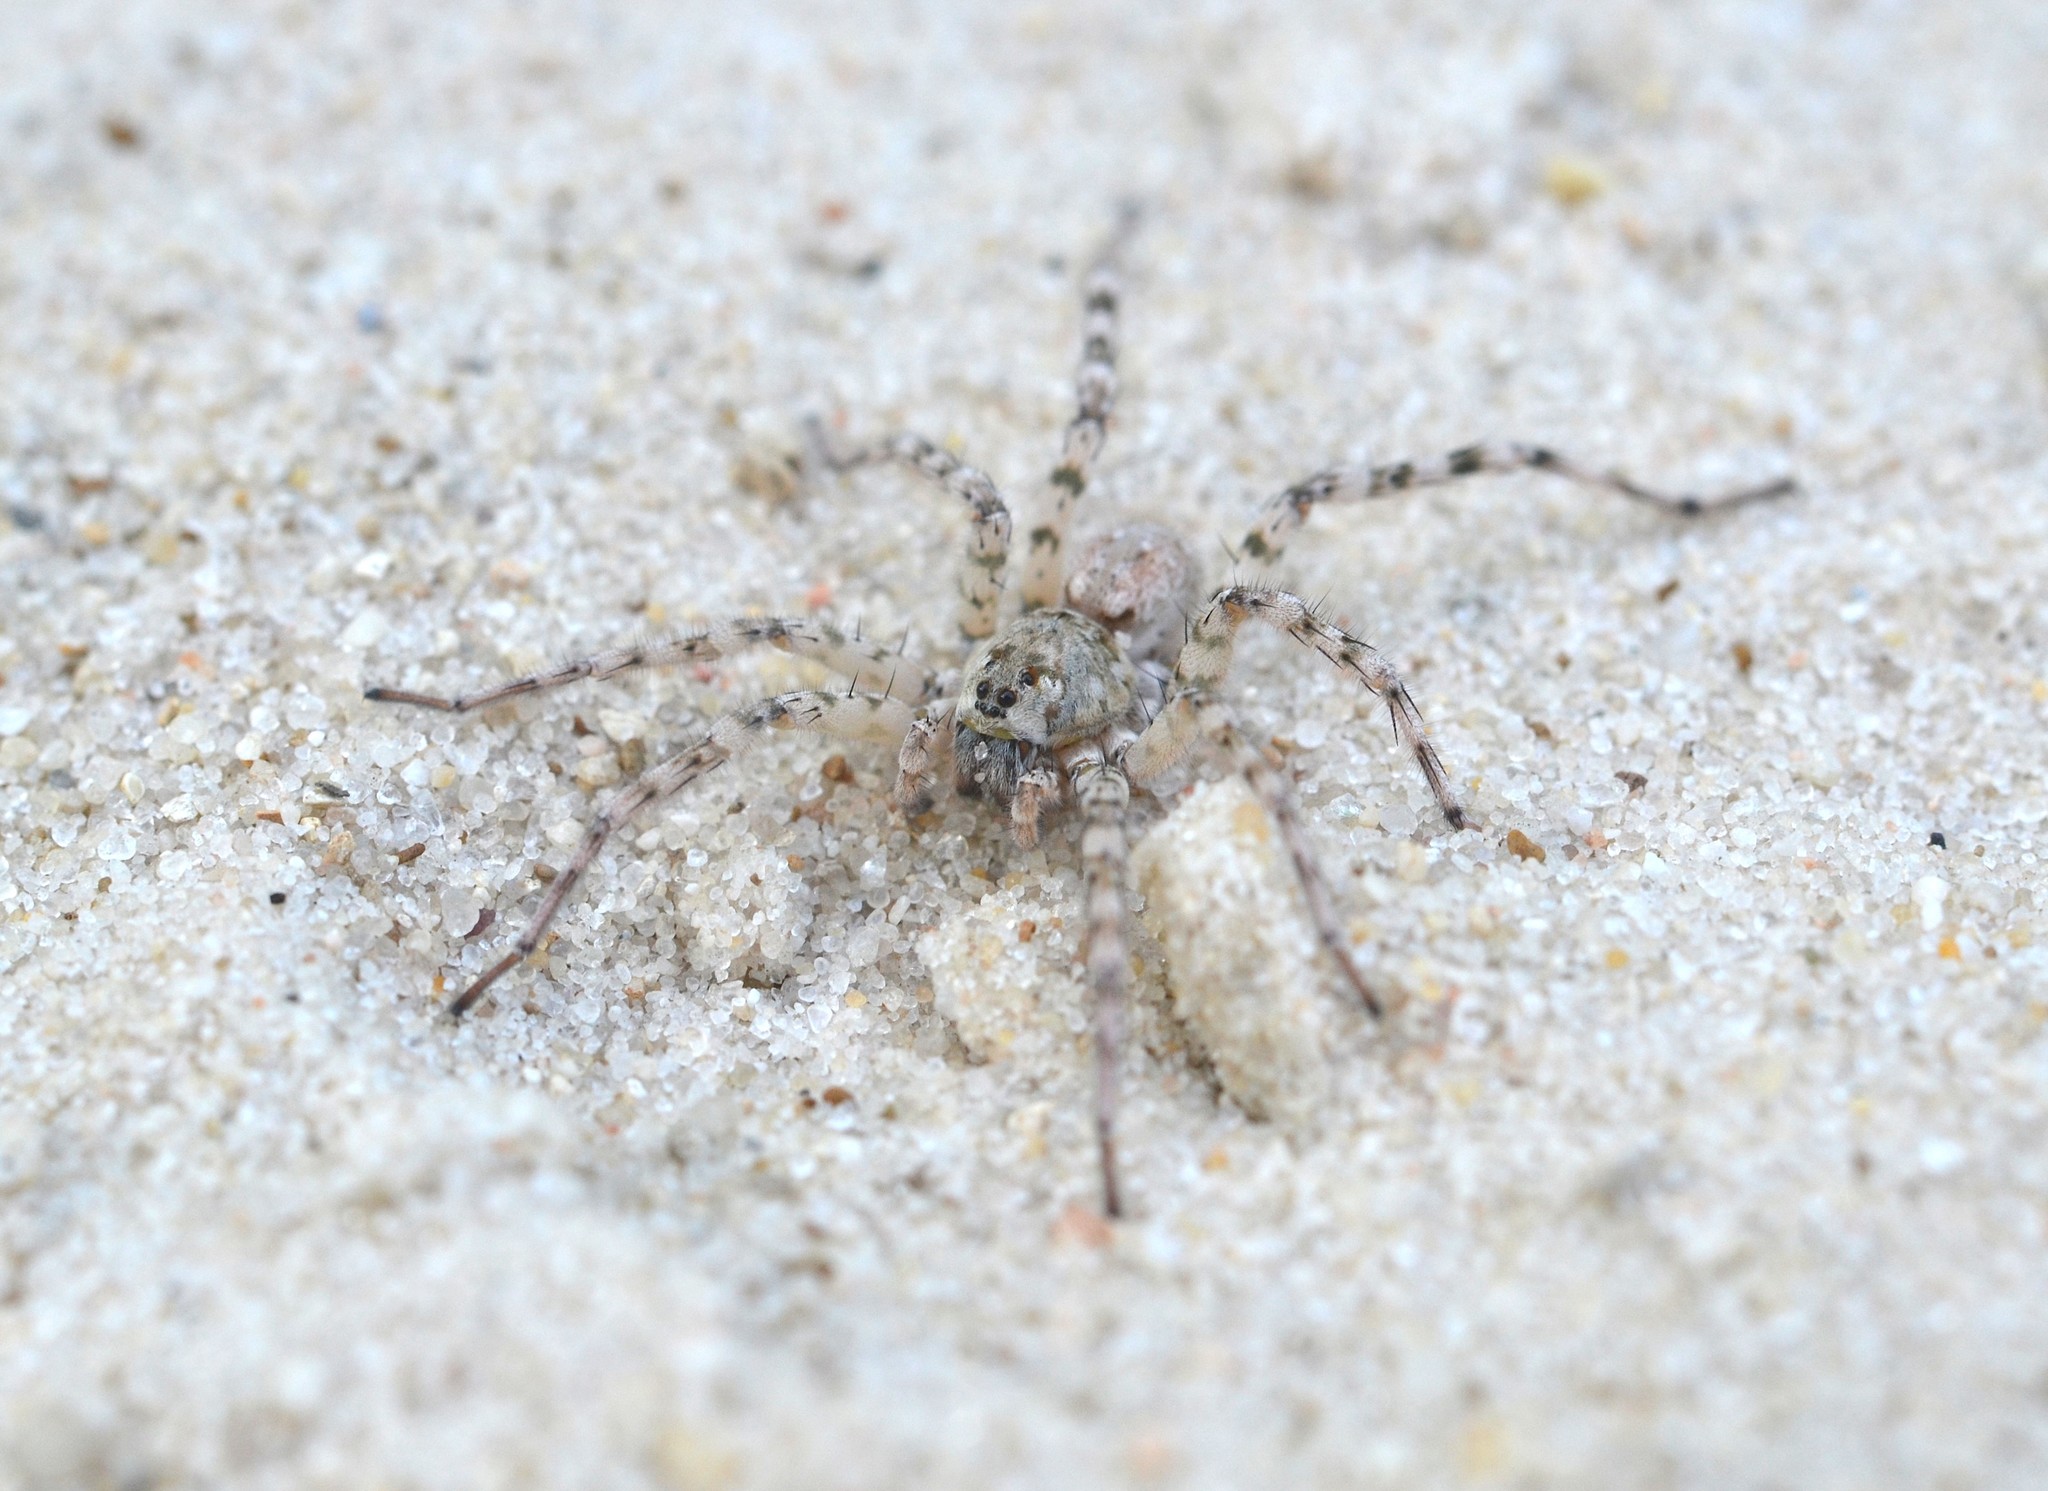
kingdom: Animalia
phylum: Arthropoda
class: Arachnida
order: Araneae
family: Lycosidae
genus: Arctosa
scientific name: Arctosa littoralis
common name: Wolf spiders
